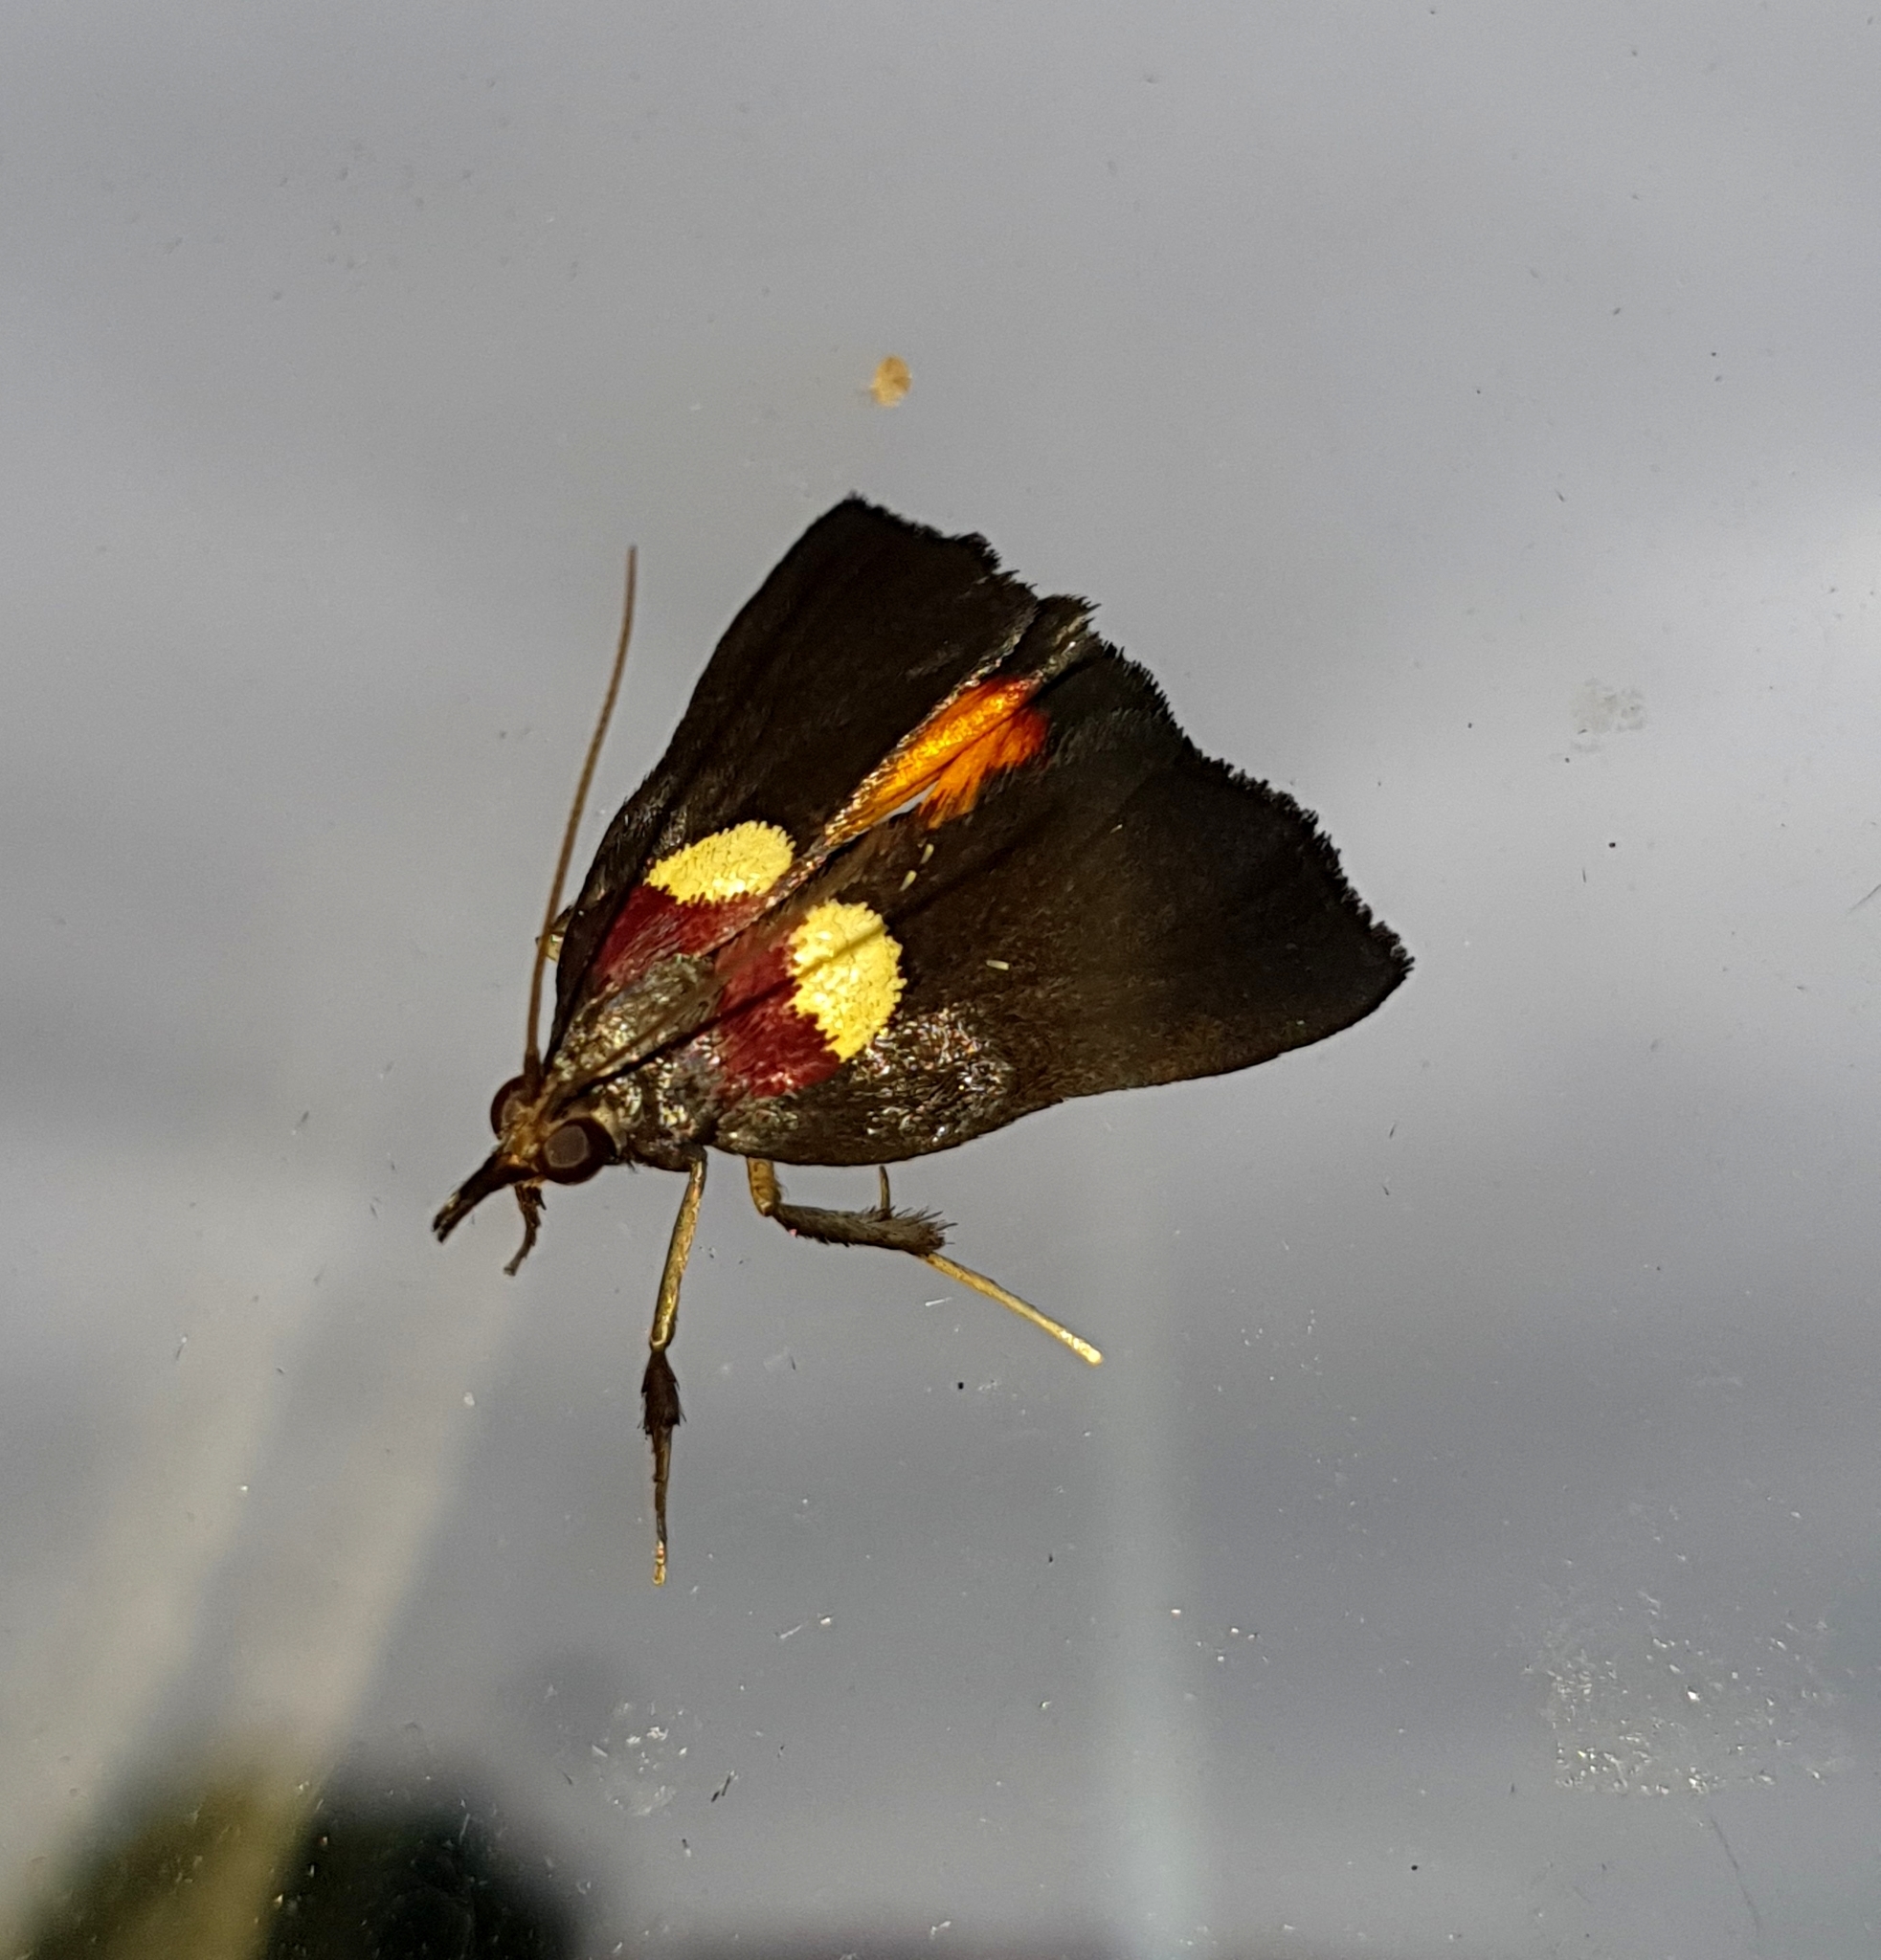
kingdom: Animalia
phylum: Arthropoda
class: Insecta
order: Lepidoptera
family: Pyralidae
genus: Semnia
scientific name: Semnia auritalis
